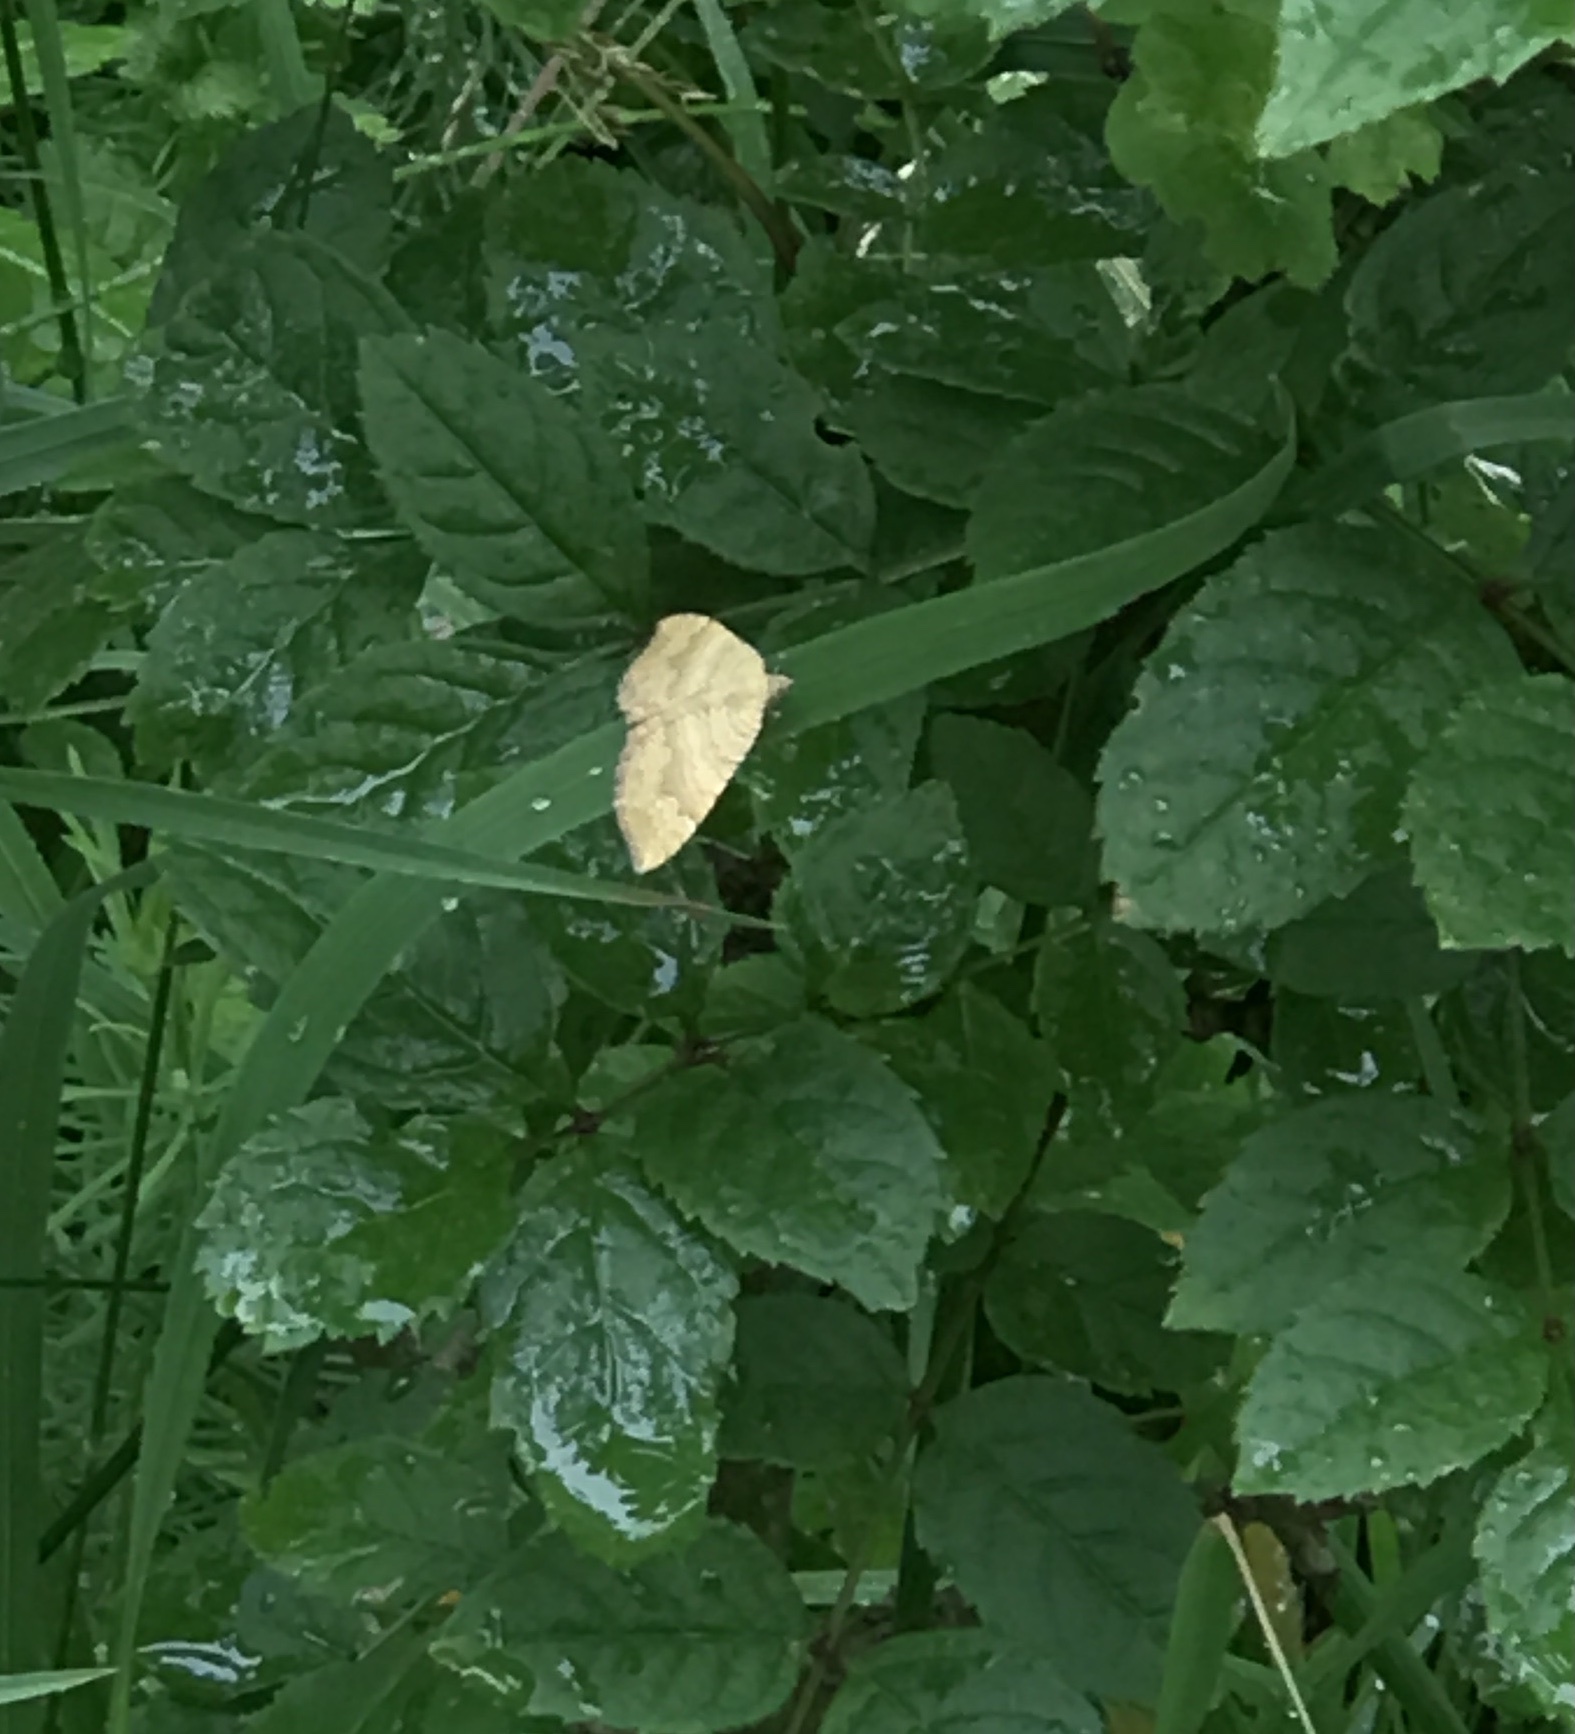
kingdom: Animalia
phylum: Arthropoda
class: Insecta
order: Lepidoptera
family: Geometridae
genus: Camptogramma
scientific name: Camptogramma bilineata
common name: Yellow shell
